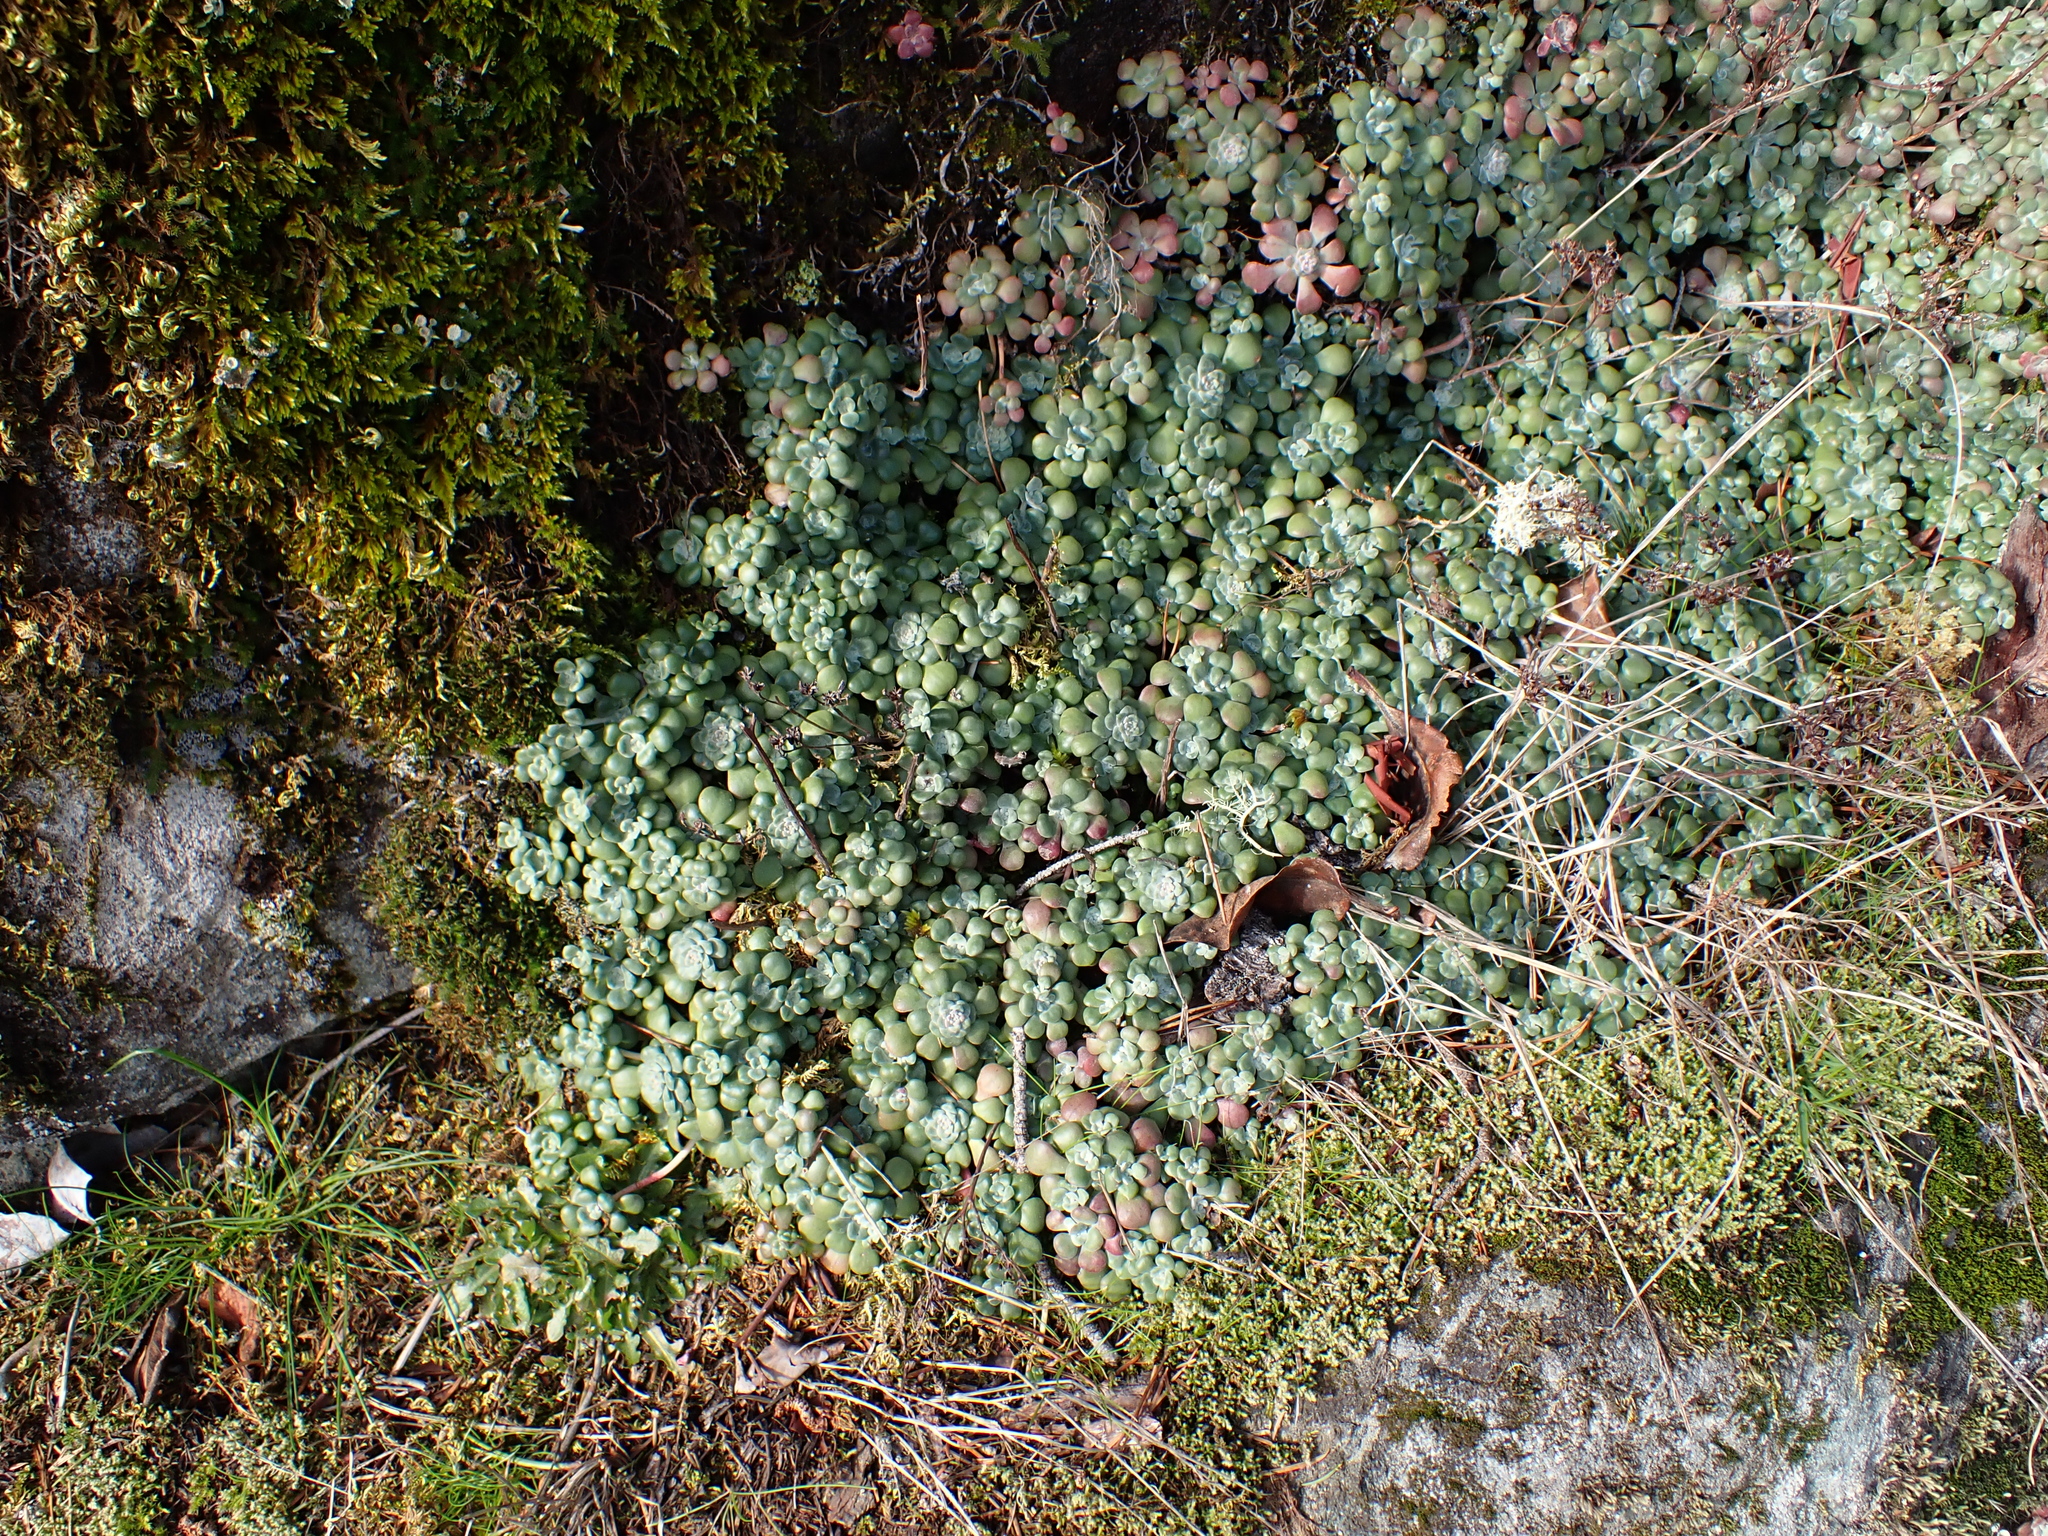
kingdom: Plantae
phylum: Tracheophyta
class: Magnoliopsida
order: Saxifragales
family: Crassulaceae
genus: Sedum
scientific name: Sedum spathulifolium
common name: Colorado stonecrop
